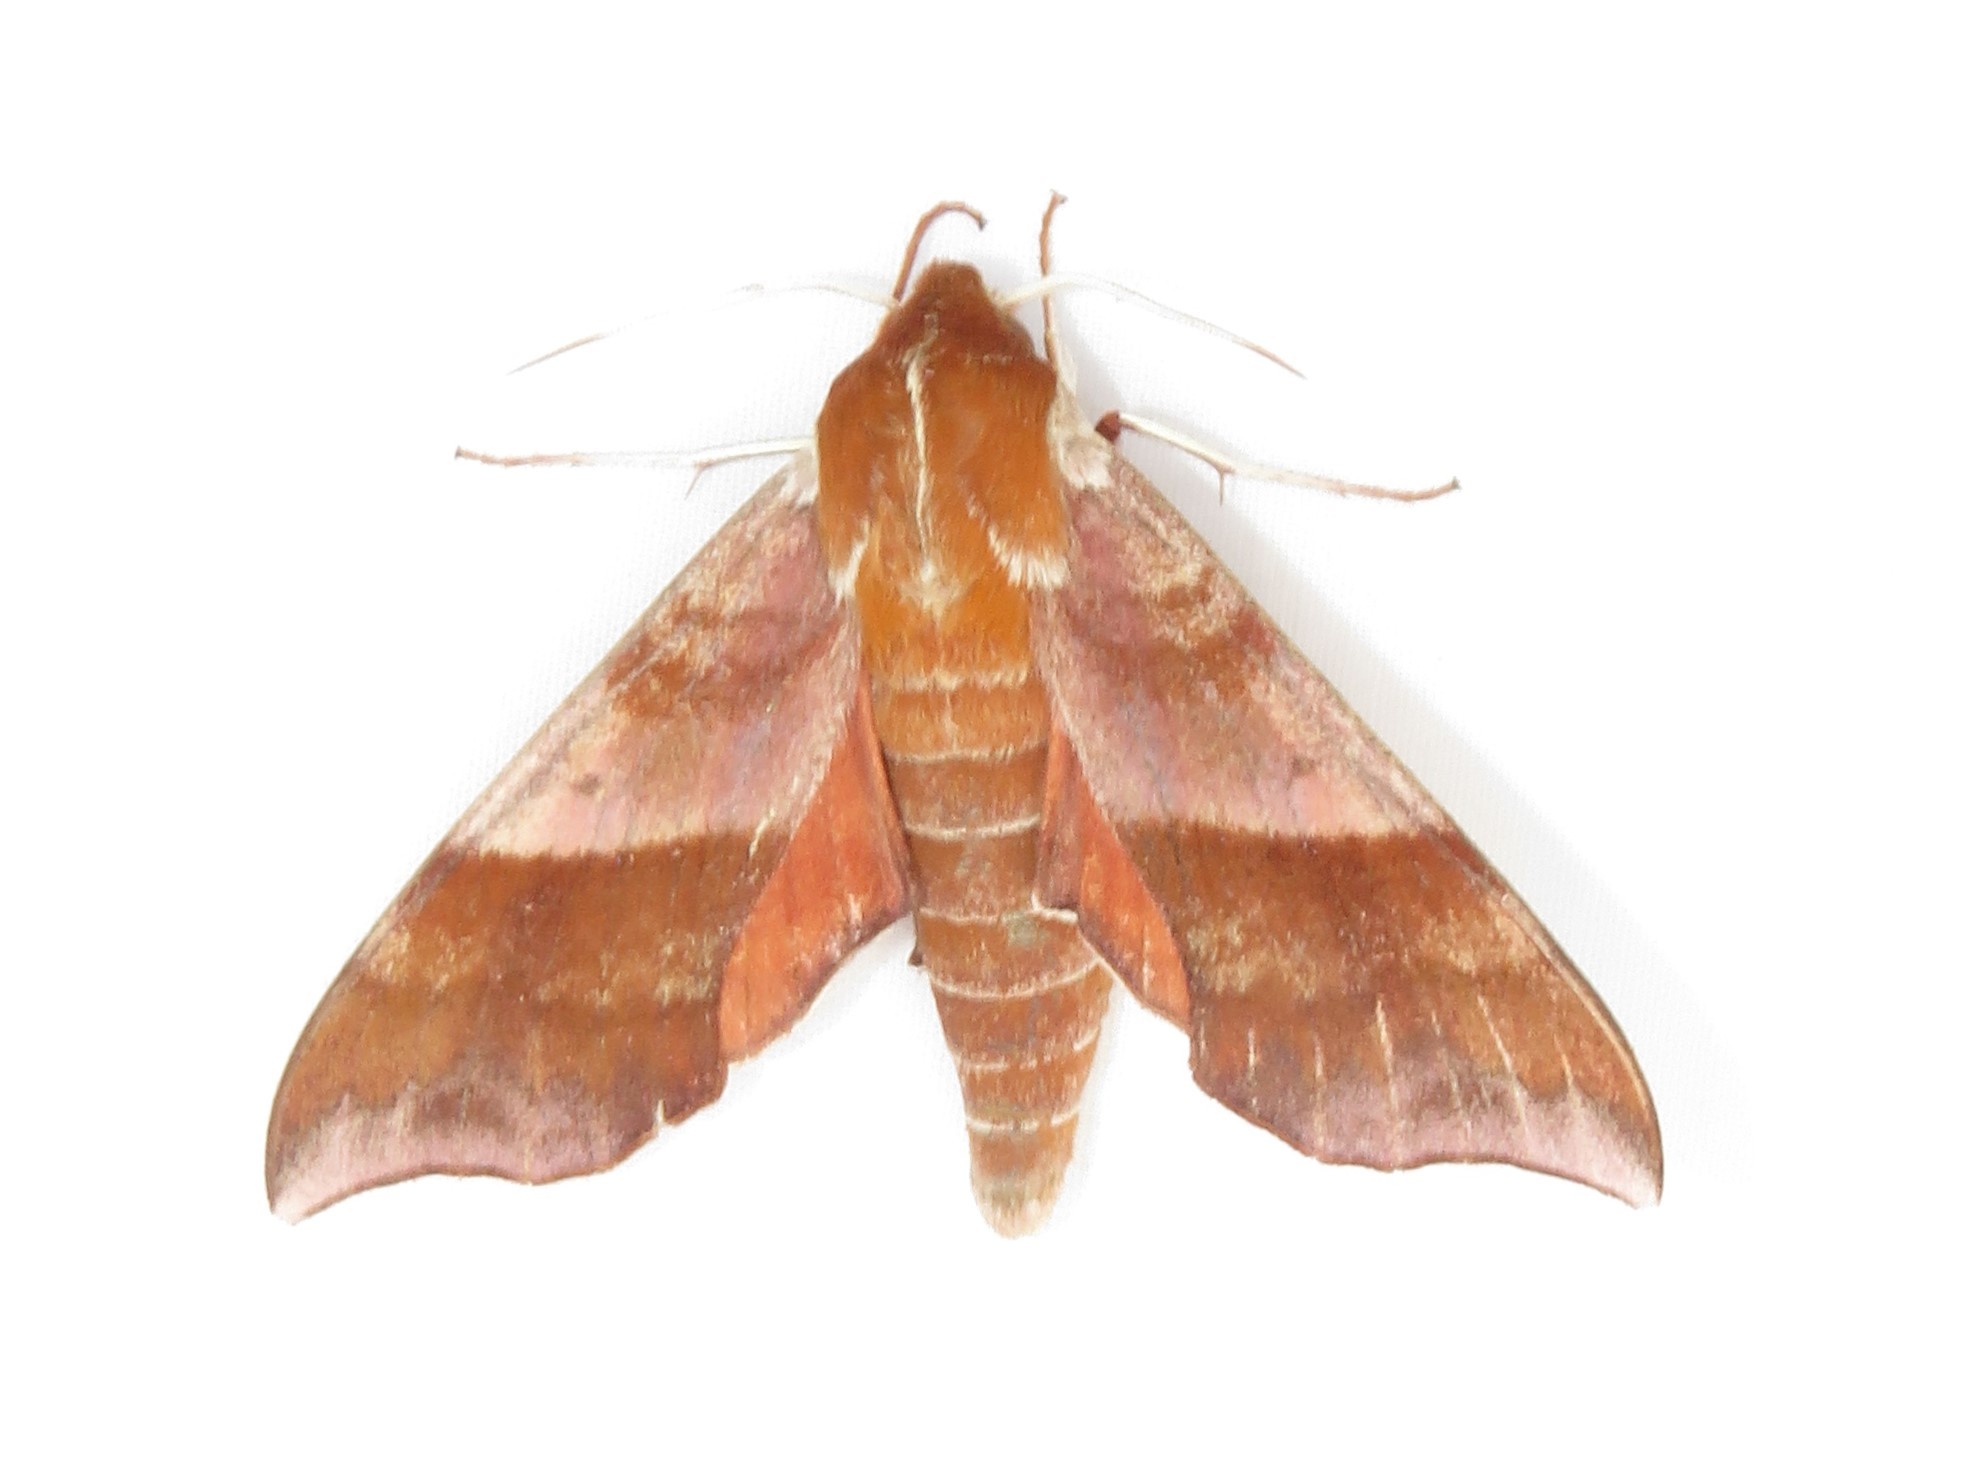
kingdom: Animalia
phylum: Arthropoda
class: Insecta
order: Lepidoptera
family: Sphingidae
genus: Darapsa
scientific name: Darapsa choerilus
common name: Azalea sphinx
